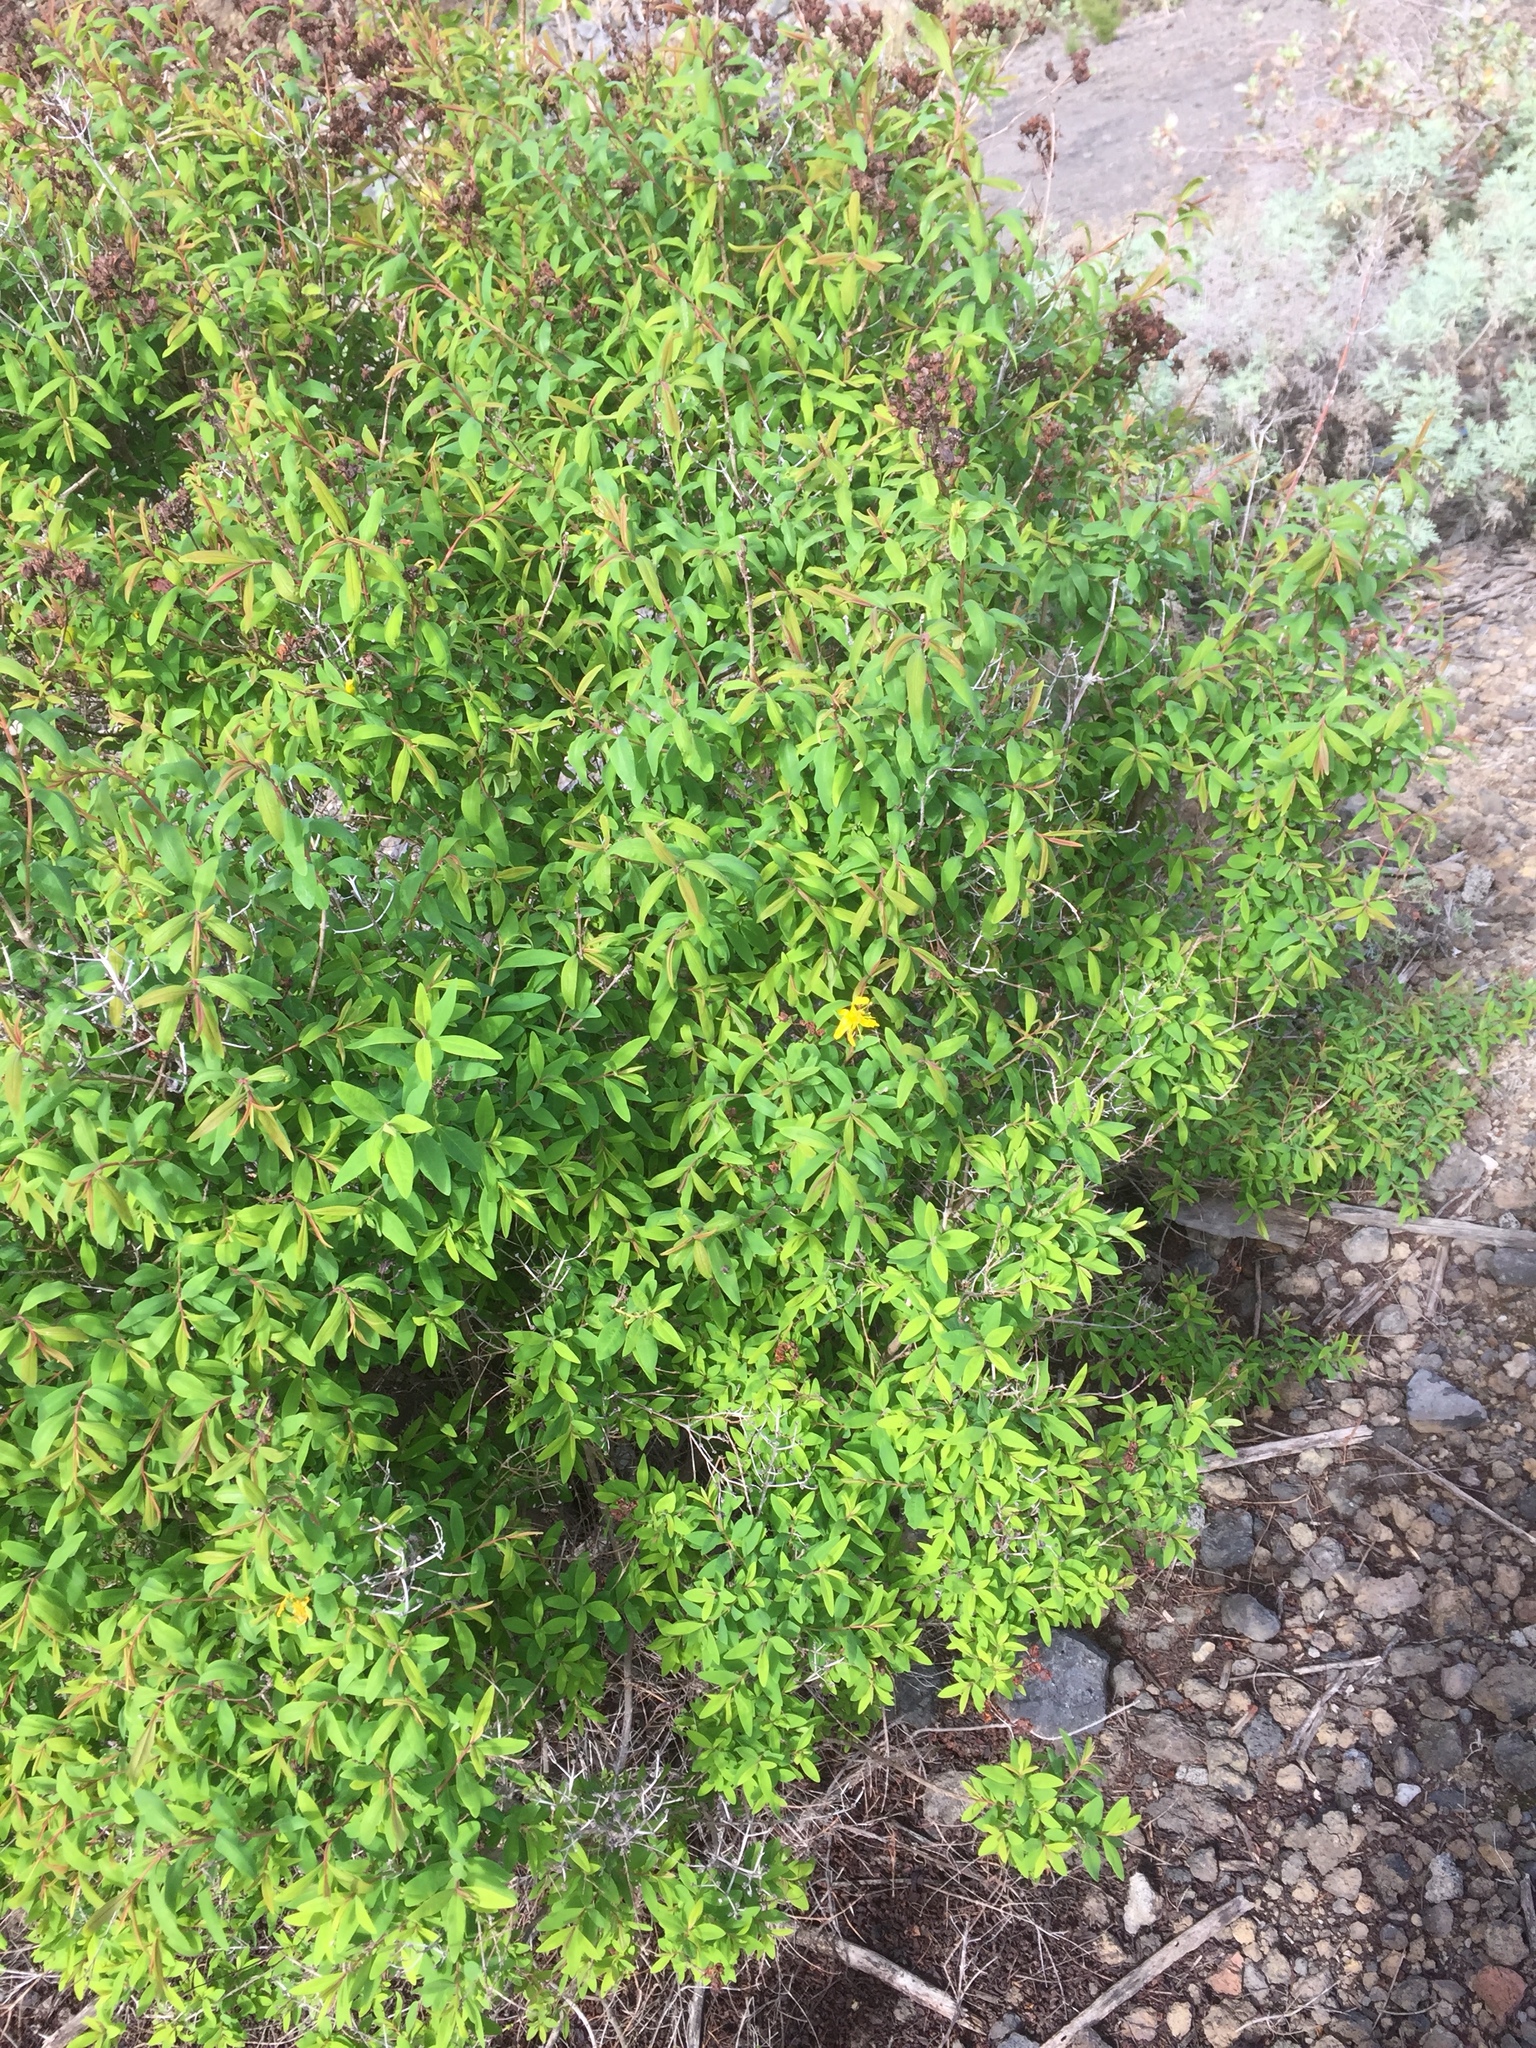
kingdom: Plantae
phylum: Tracheophyta
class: Magnoliopsida
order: Malpighiales
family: Hypericaceae
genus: Hypericum
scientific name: Hypericum canariense
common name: Canary island st. johnswort
